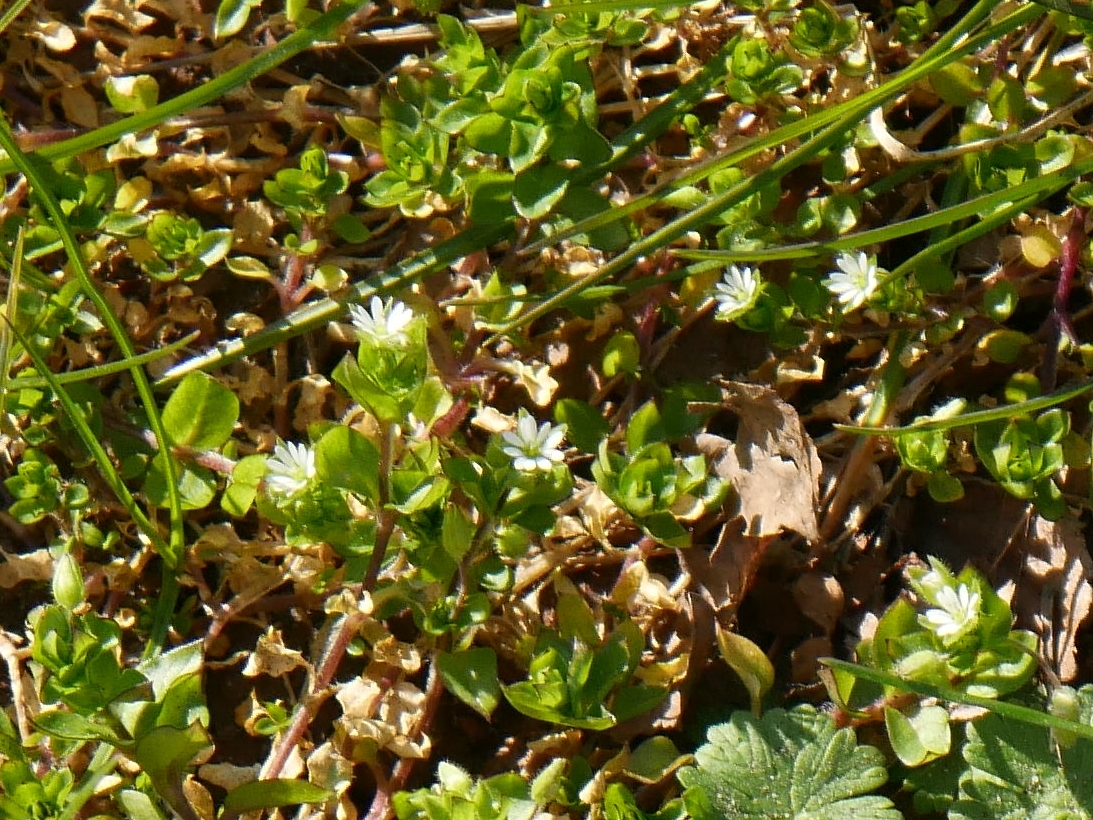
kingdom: Plantae
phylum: Tracheophyta
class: Magnoliopsida
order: Caryophyllales
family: Caryophyllaceae
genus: Stellaria
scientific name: Stellaria media
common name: Common chickweed
